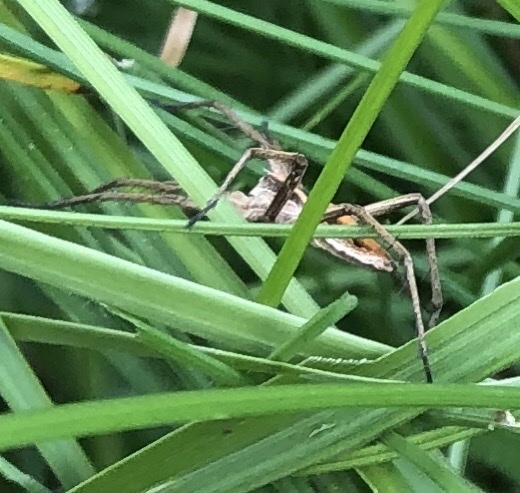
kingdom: Animalia
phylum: Arthropoda
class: Arachnida
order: Araneae
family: Pisauridae
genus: Pisaura
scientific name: Pisaura mirabilis
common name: Tent spider
